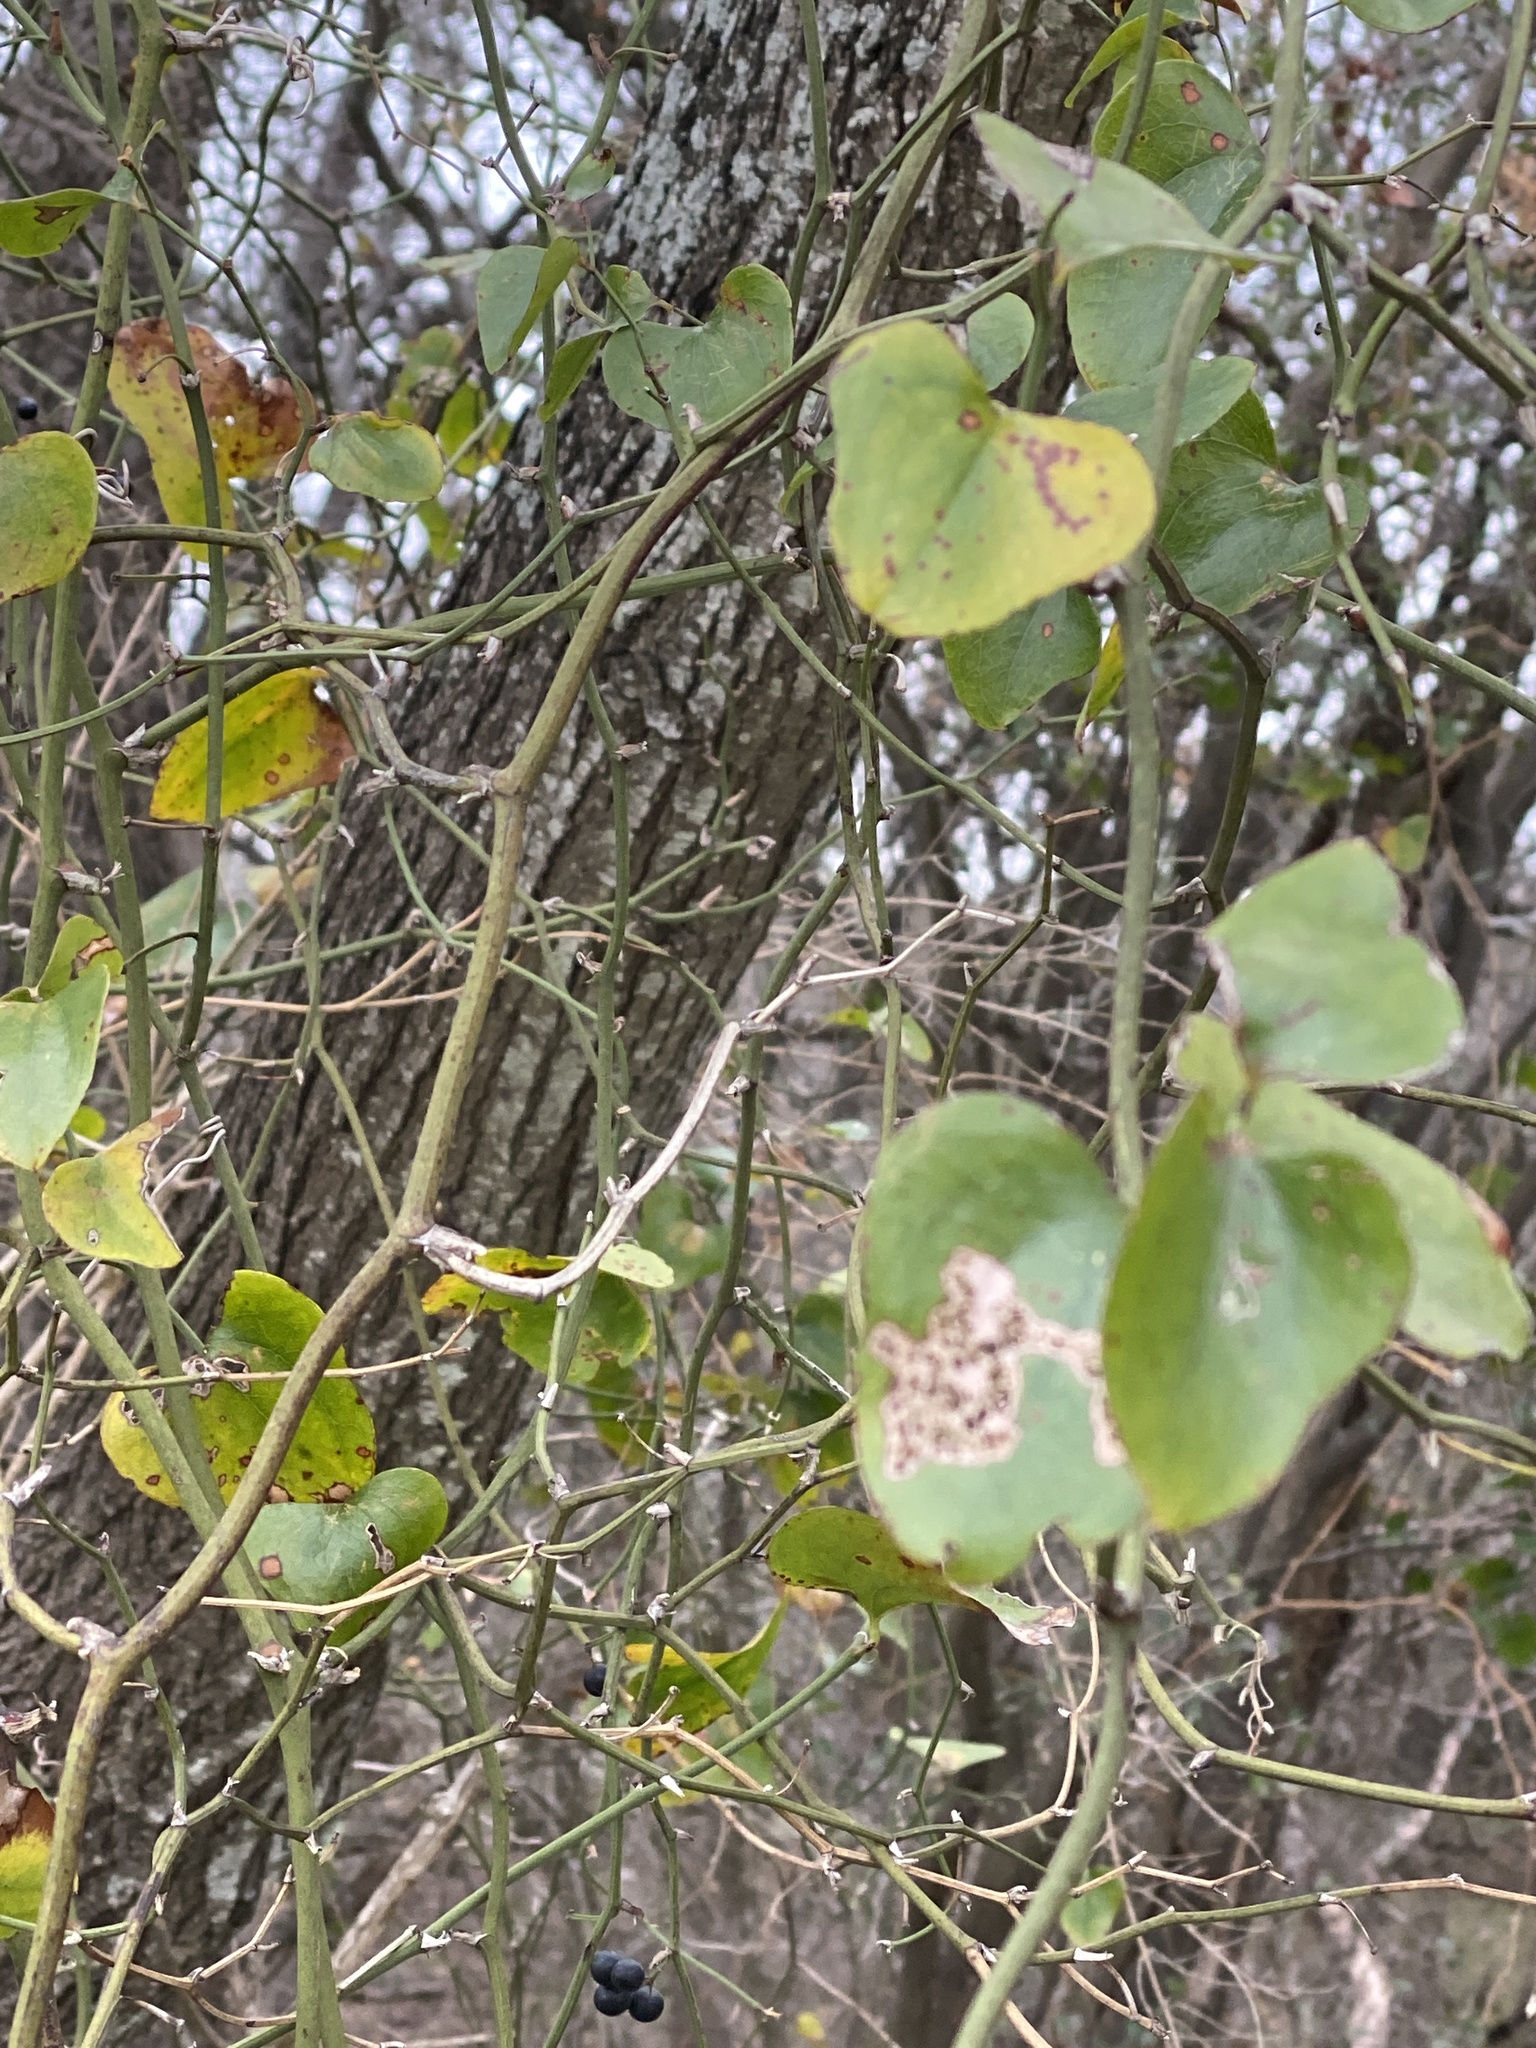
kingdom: Plantae
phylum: Tracheophyta
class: Liliopsida
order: Liliales
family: Smilacaceae
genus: Smilax
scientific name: Smilax bona-nox
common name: Catbrier
